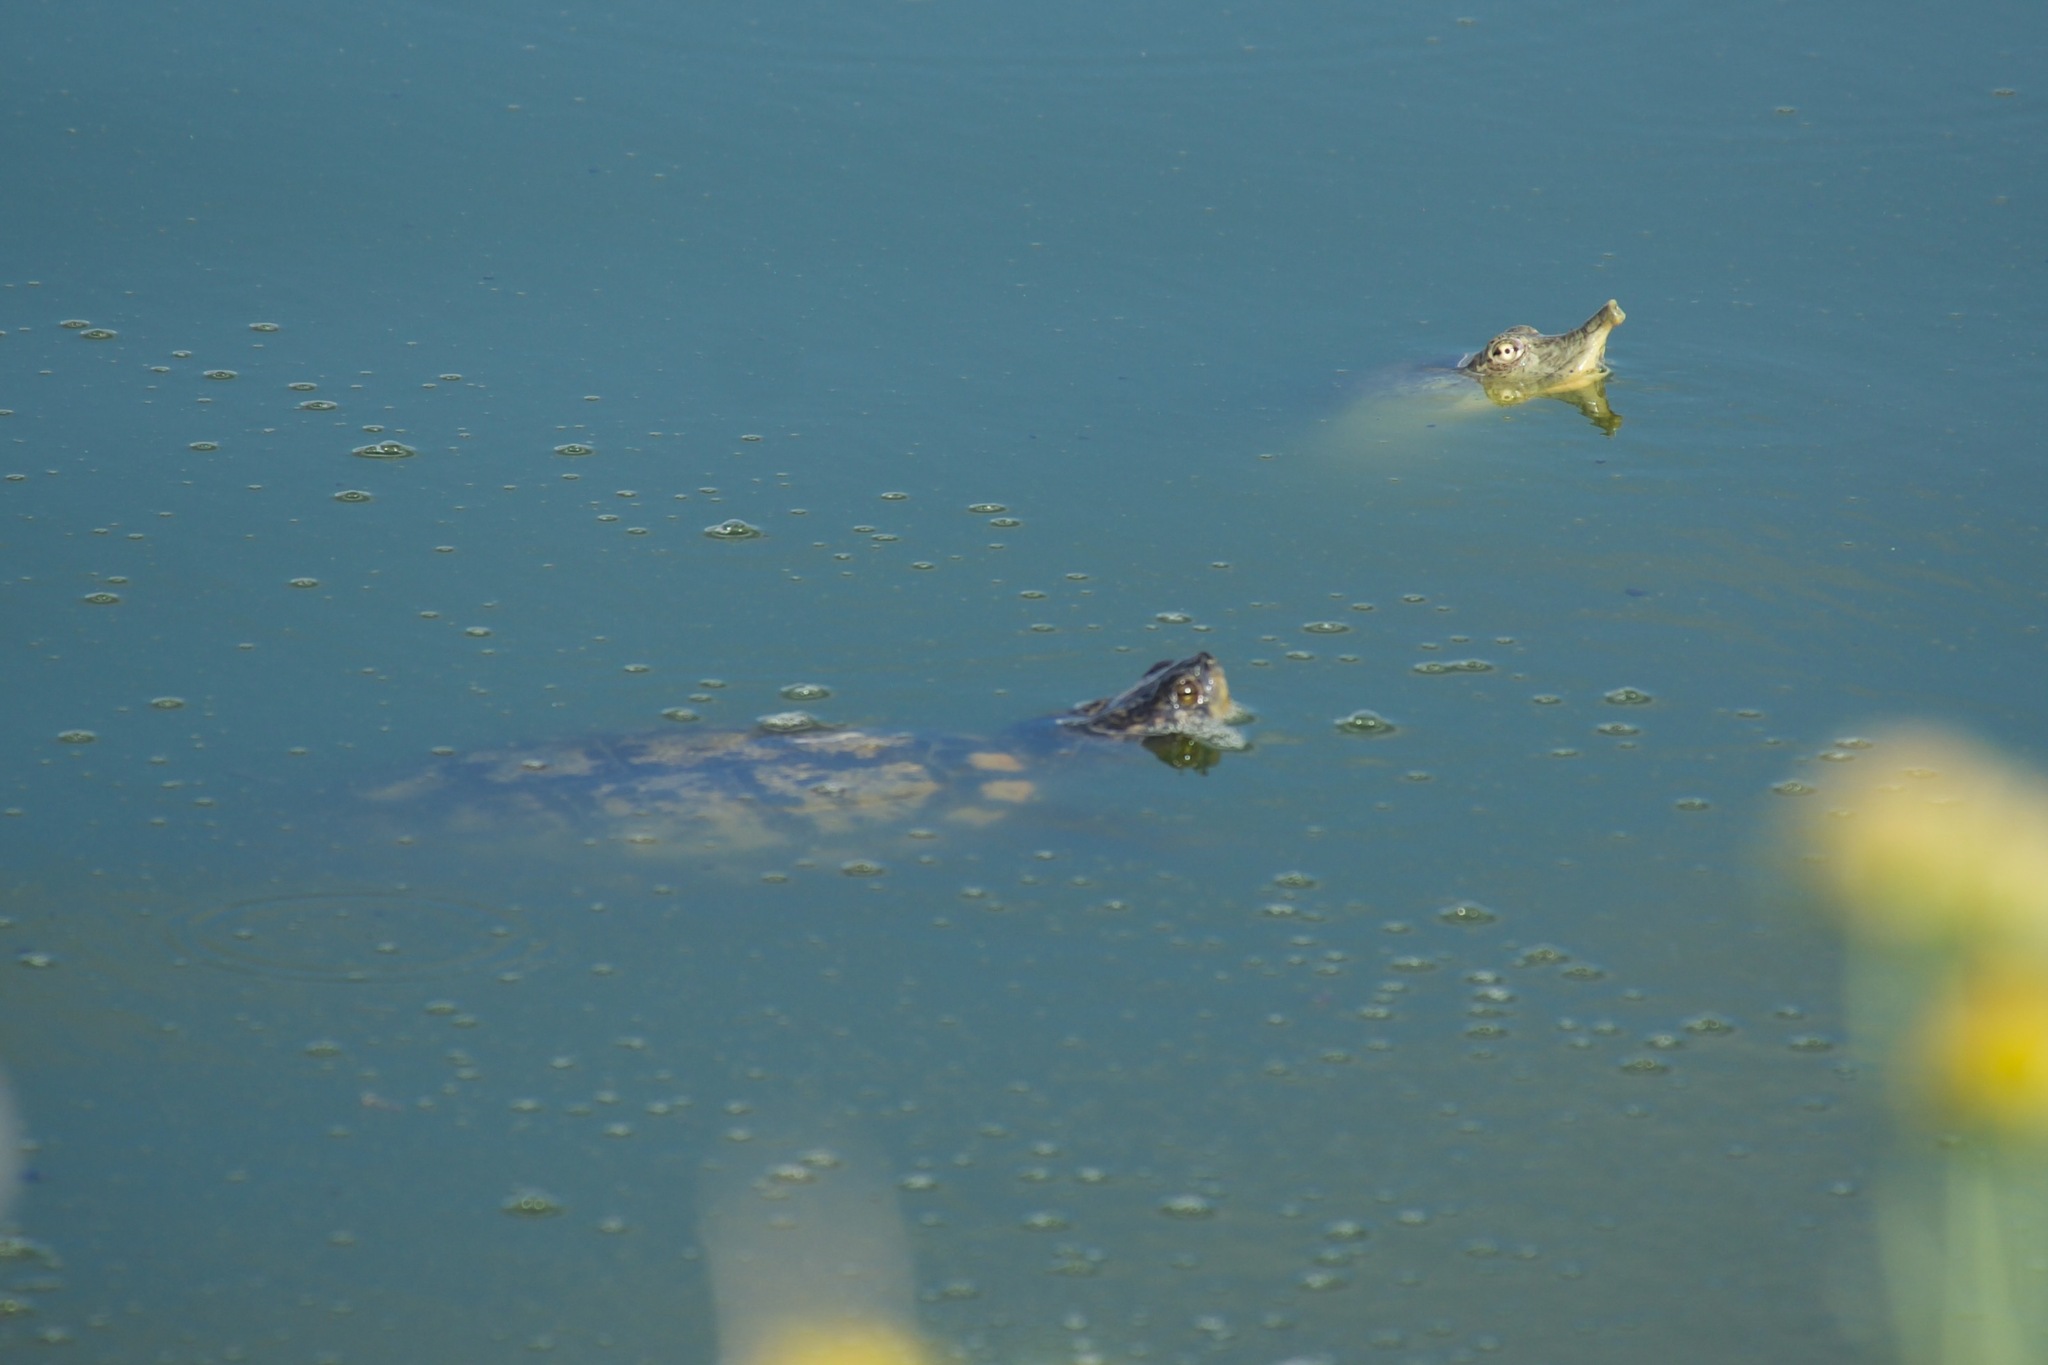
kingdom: Animalia
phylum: Chordata
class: Testudines
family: Trionychidae
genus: Apalone
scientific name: Apalone spinifera
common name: Spiny softshell turtle
